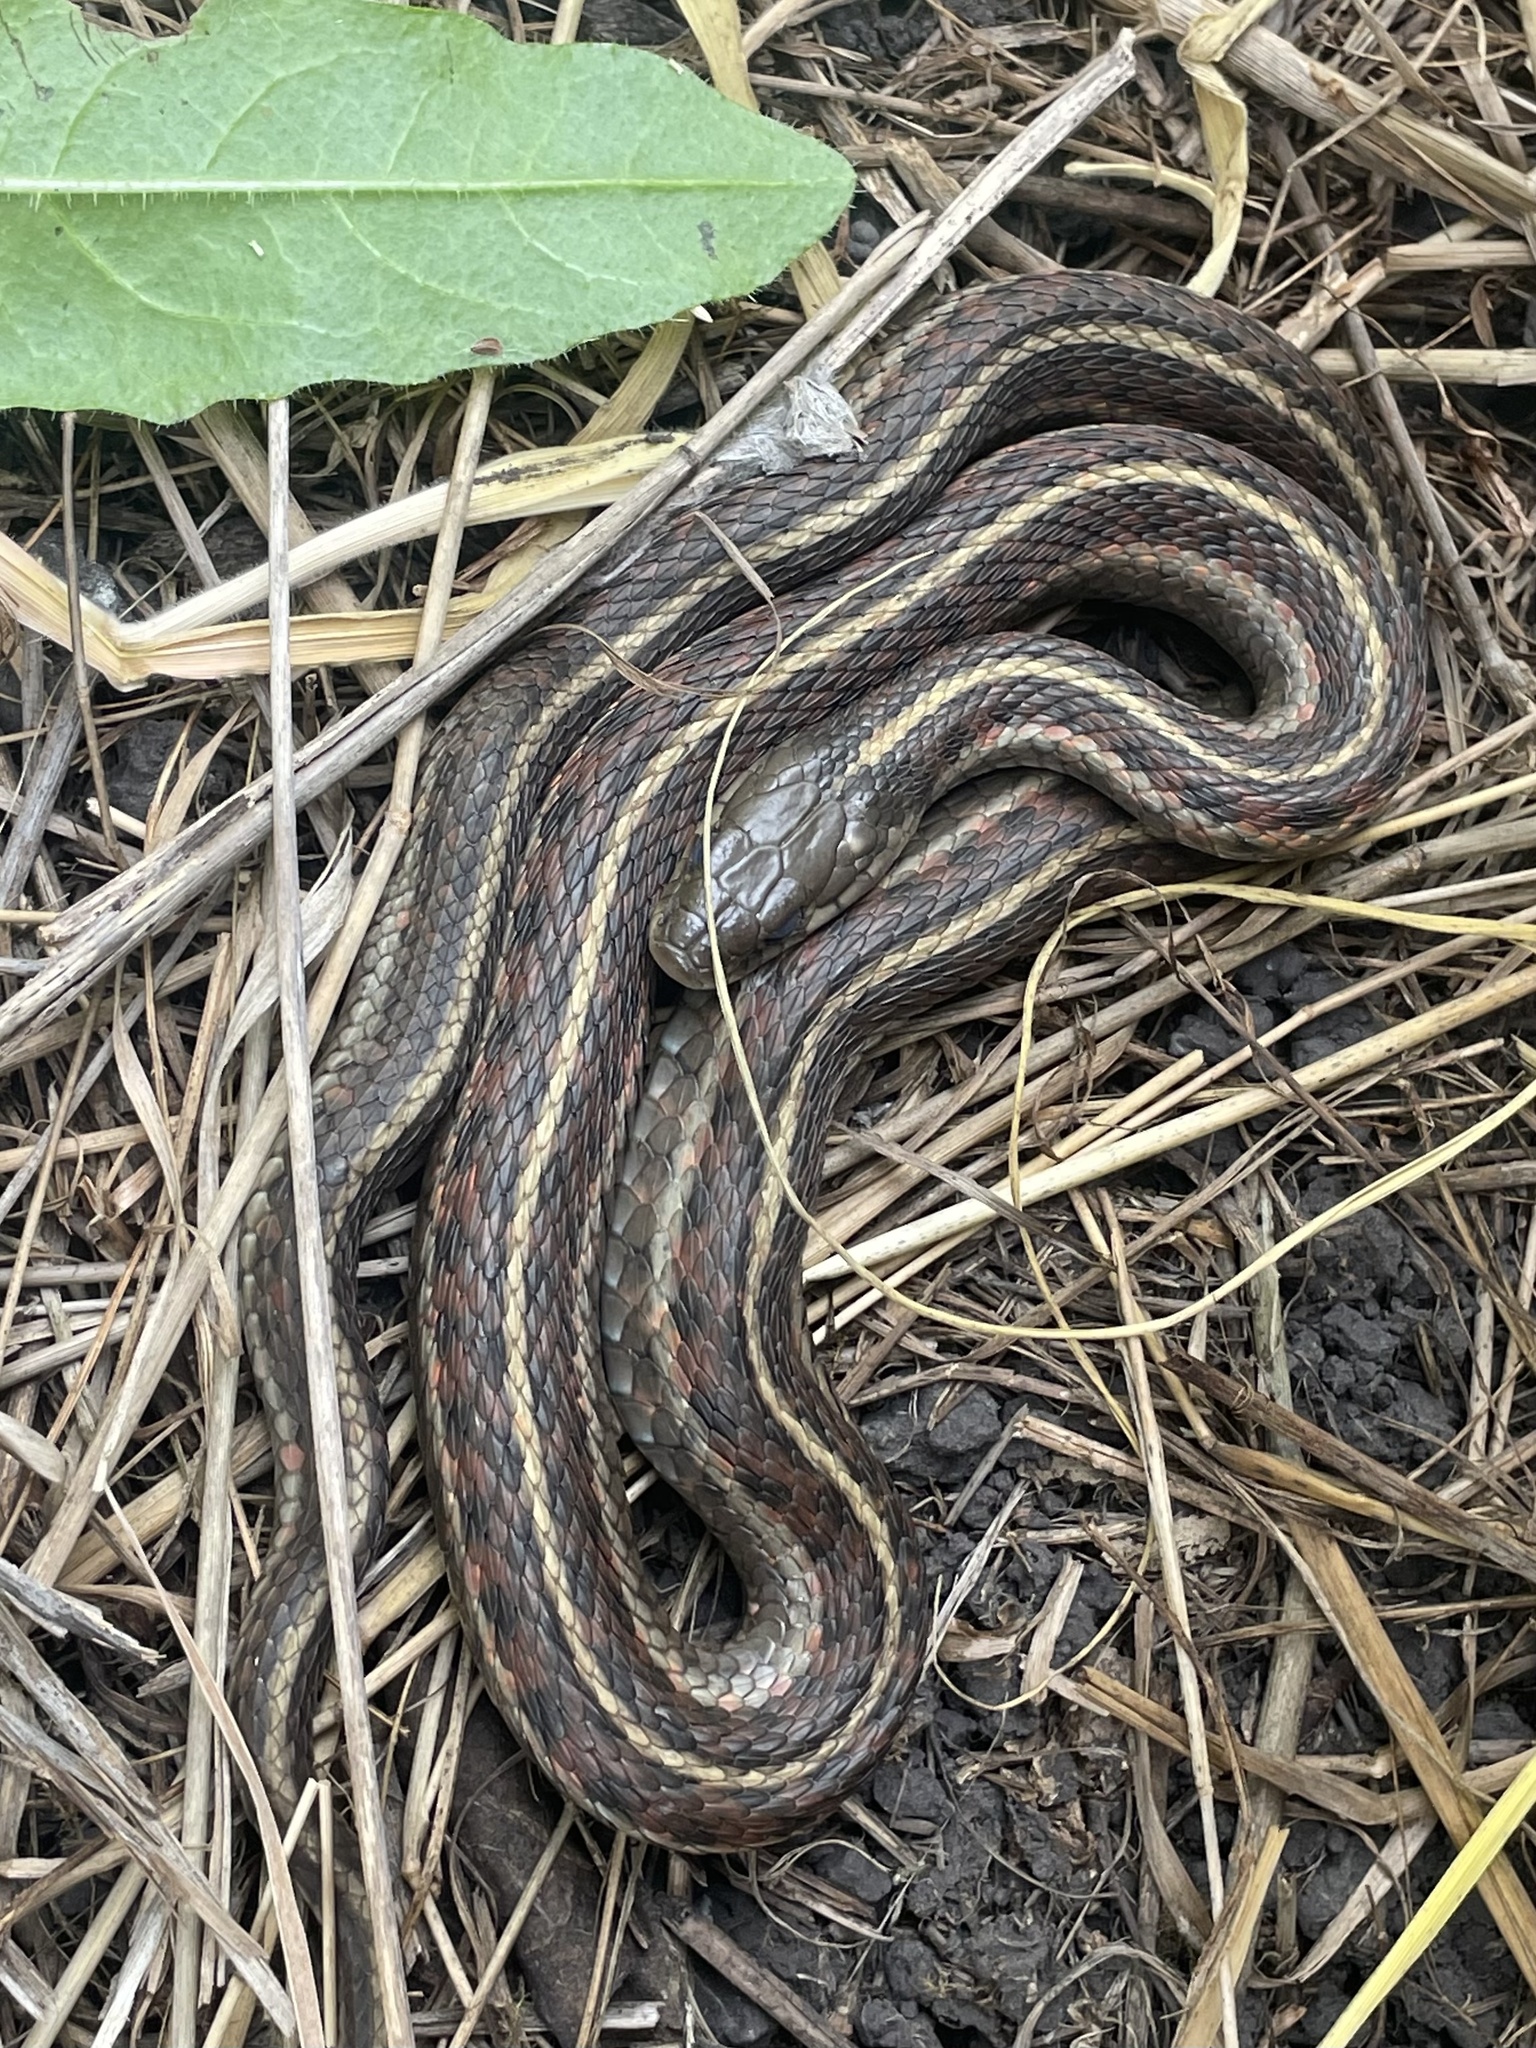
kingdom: Animalia
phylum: Chordata
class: Squamata
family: Colubridae
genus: Thamnophis
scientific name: Thamnophis elegans
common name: Western terrestrial garter snake
